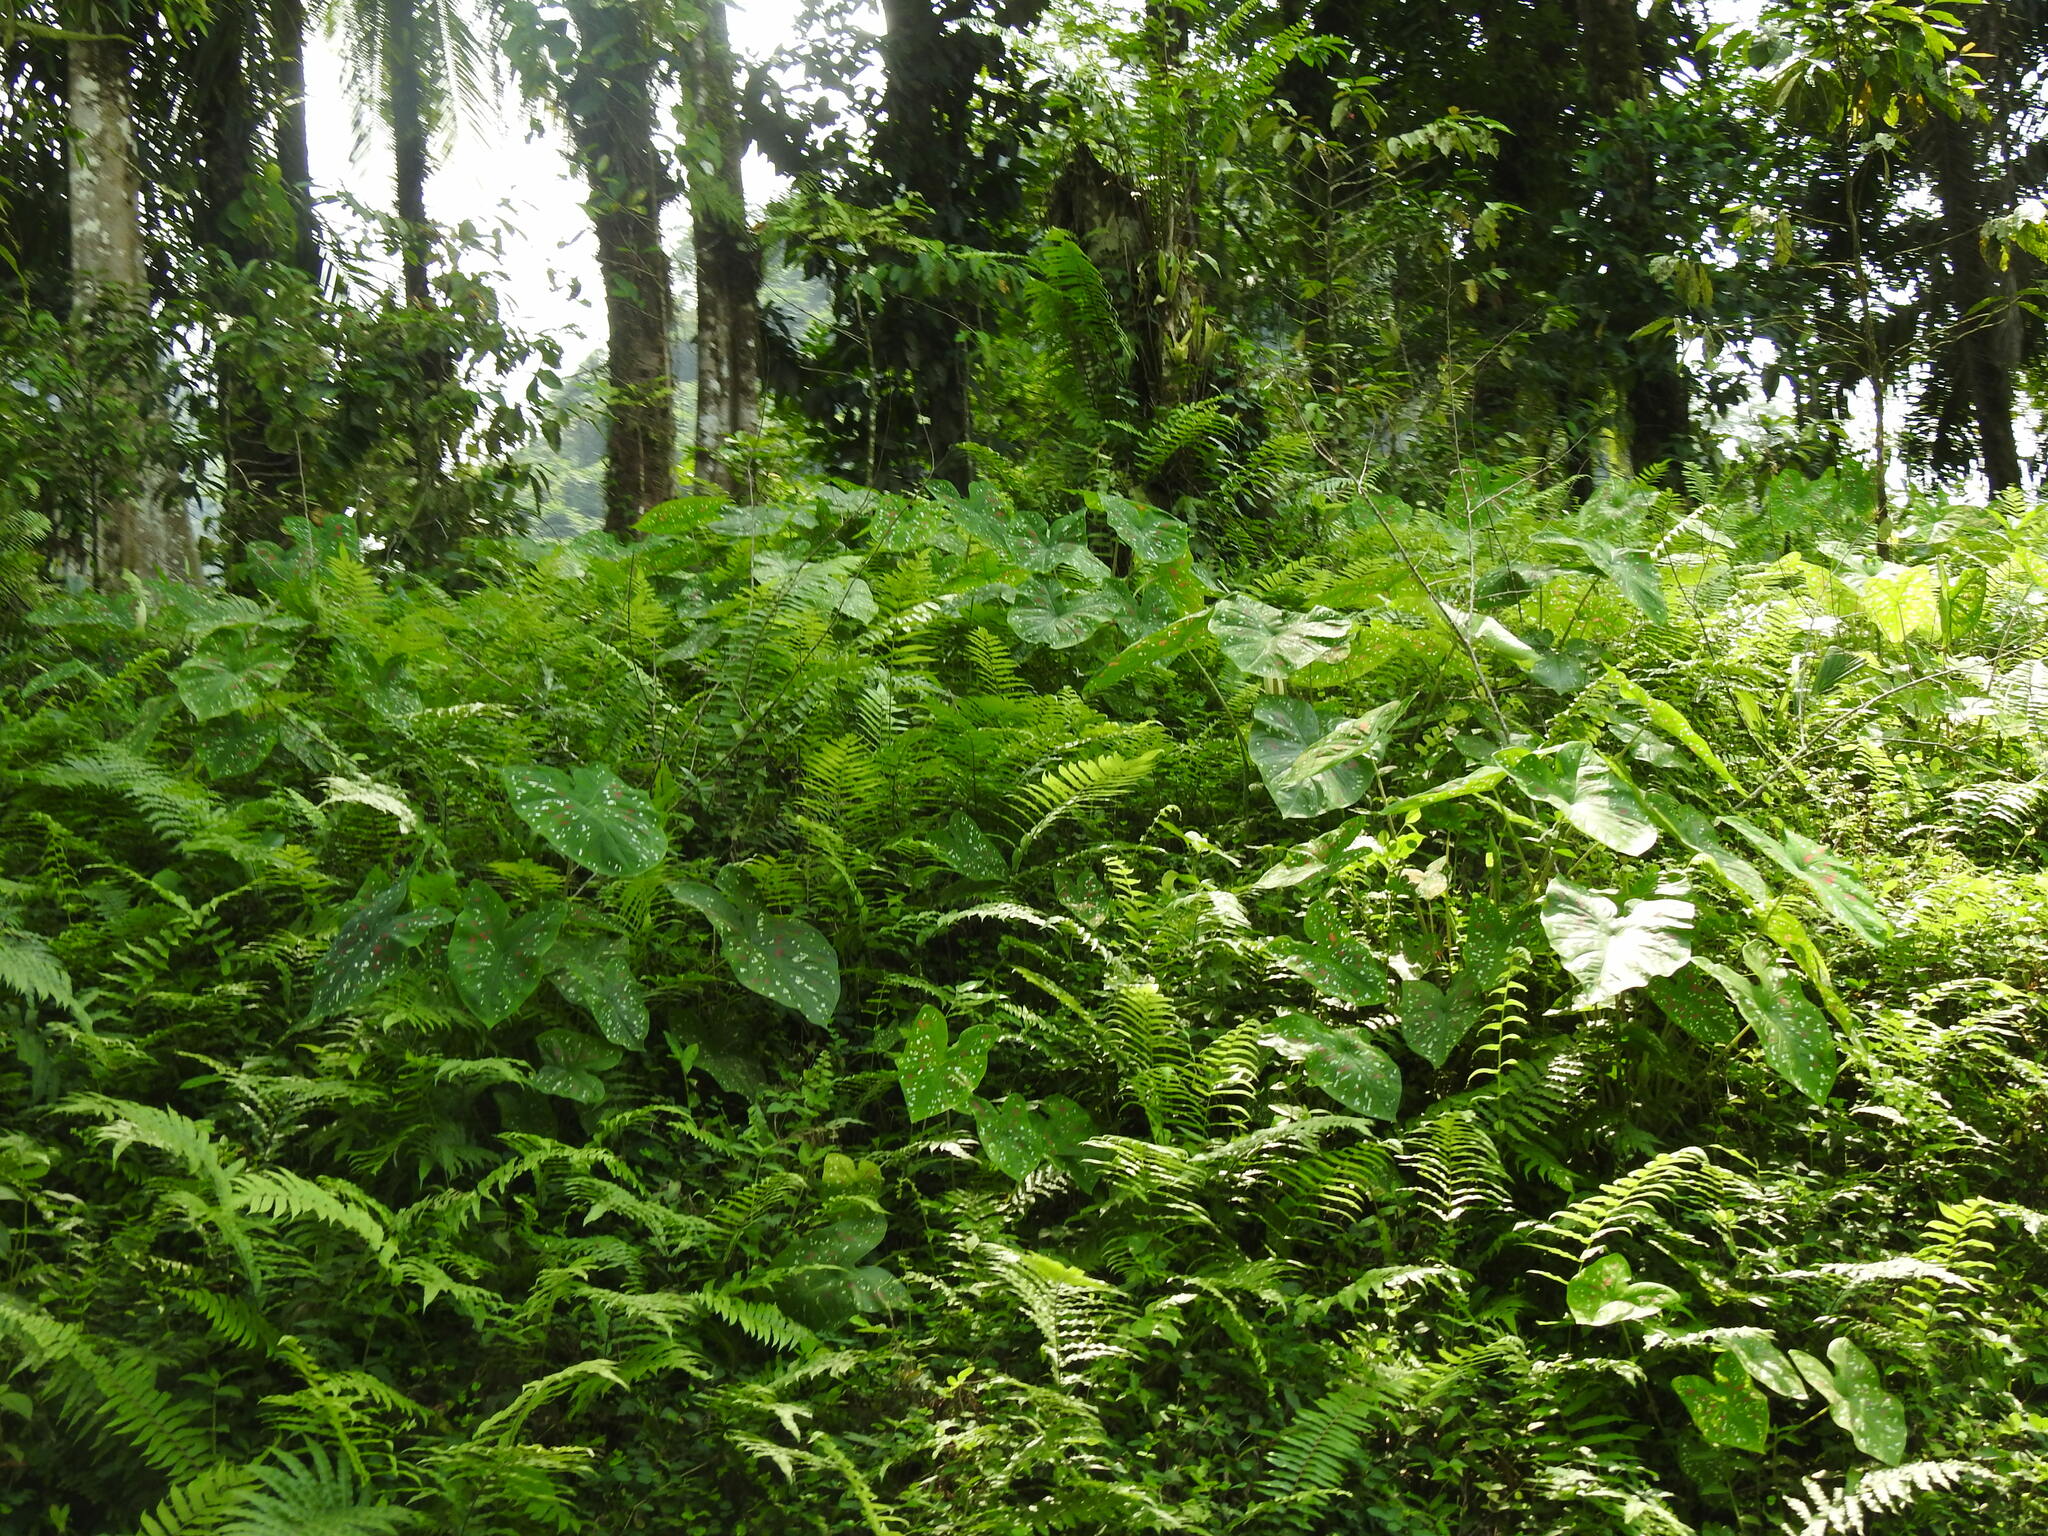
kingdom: Plantae
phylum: Tracheophyta
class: Liliopsida
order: Alismatales
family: Araceae
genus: Caladium
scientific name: Caladium bicolor
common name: Artist's pallet
